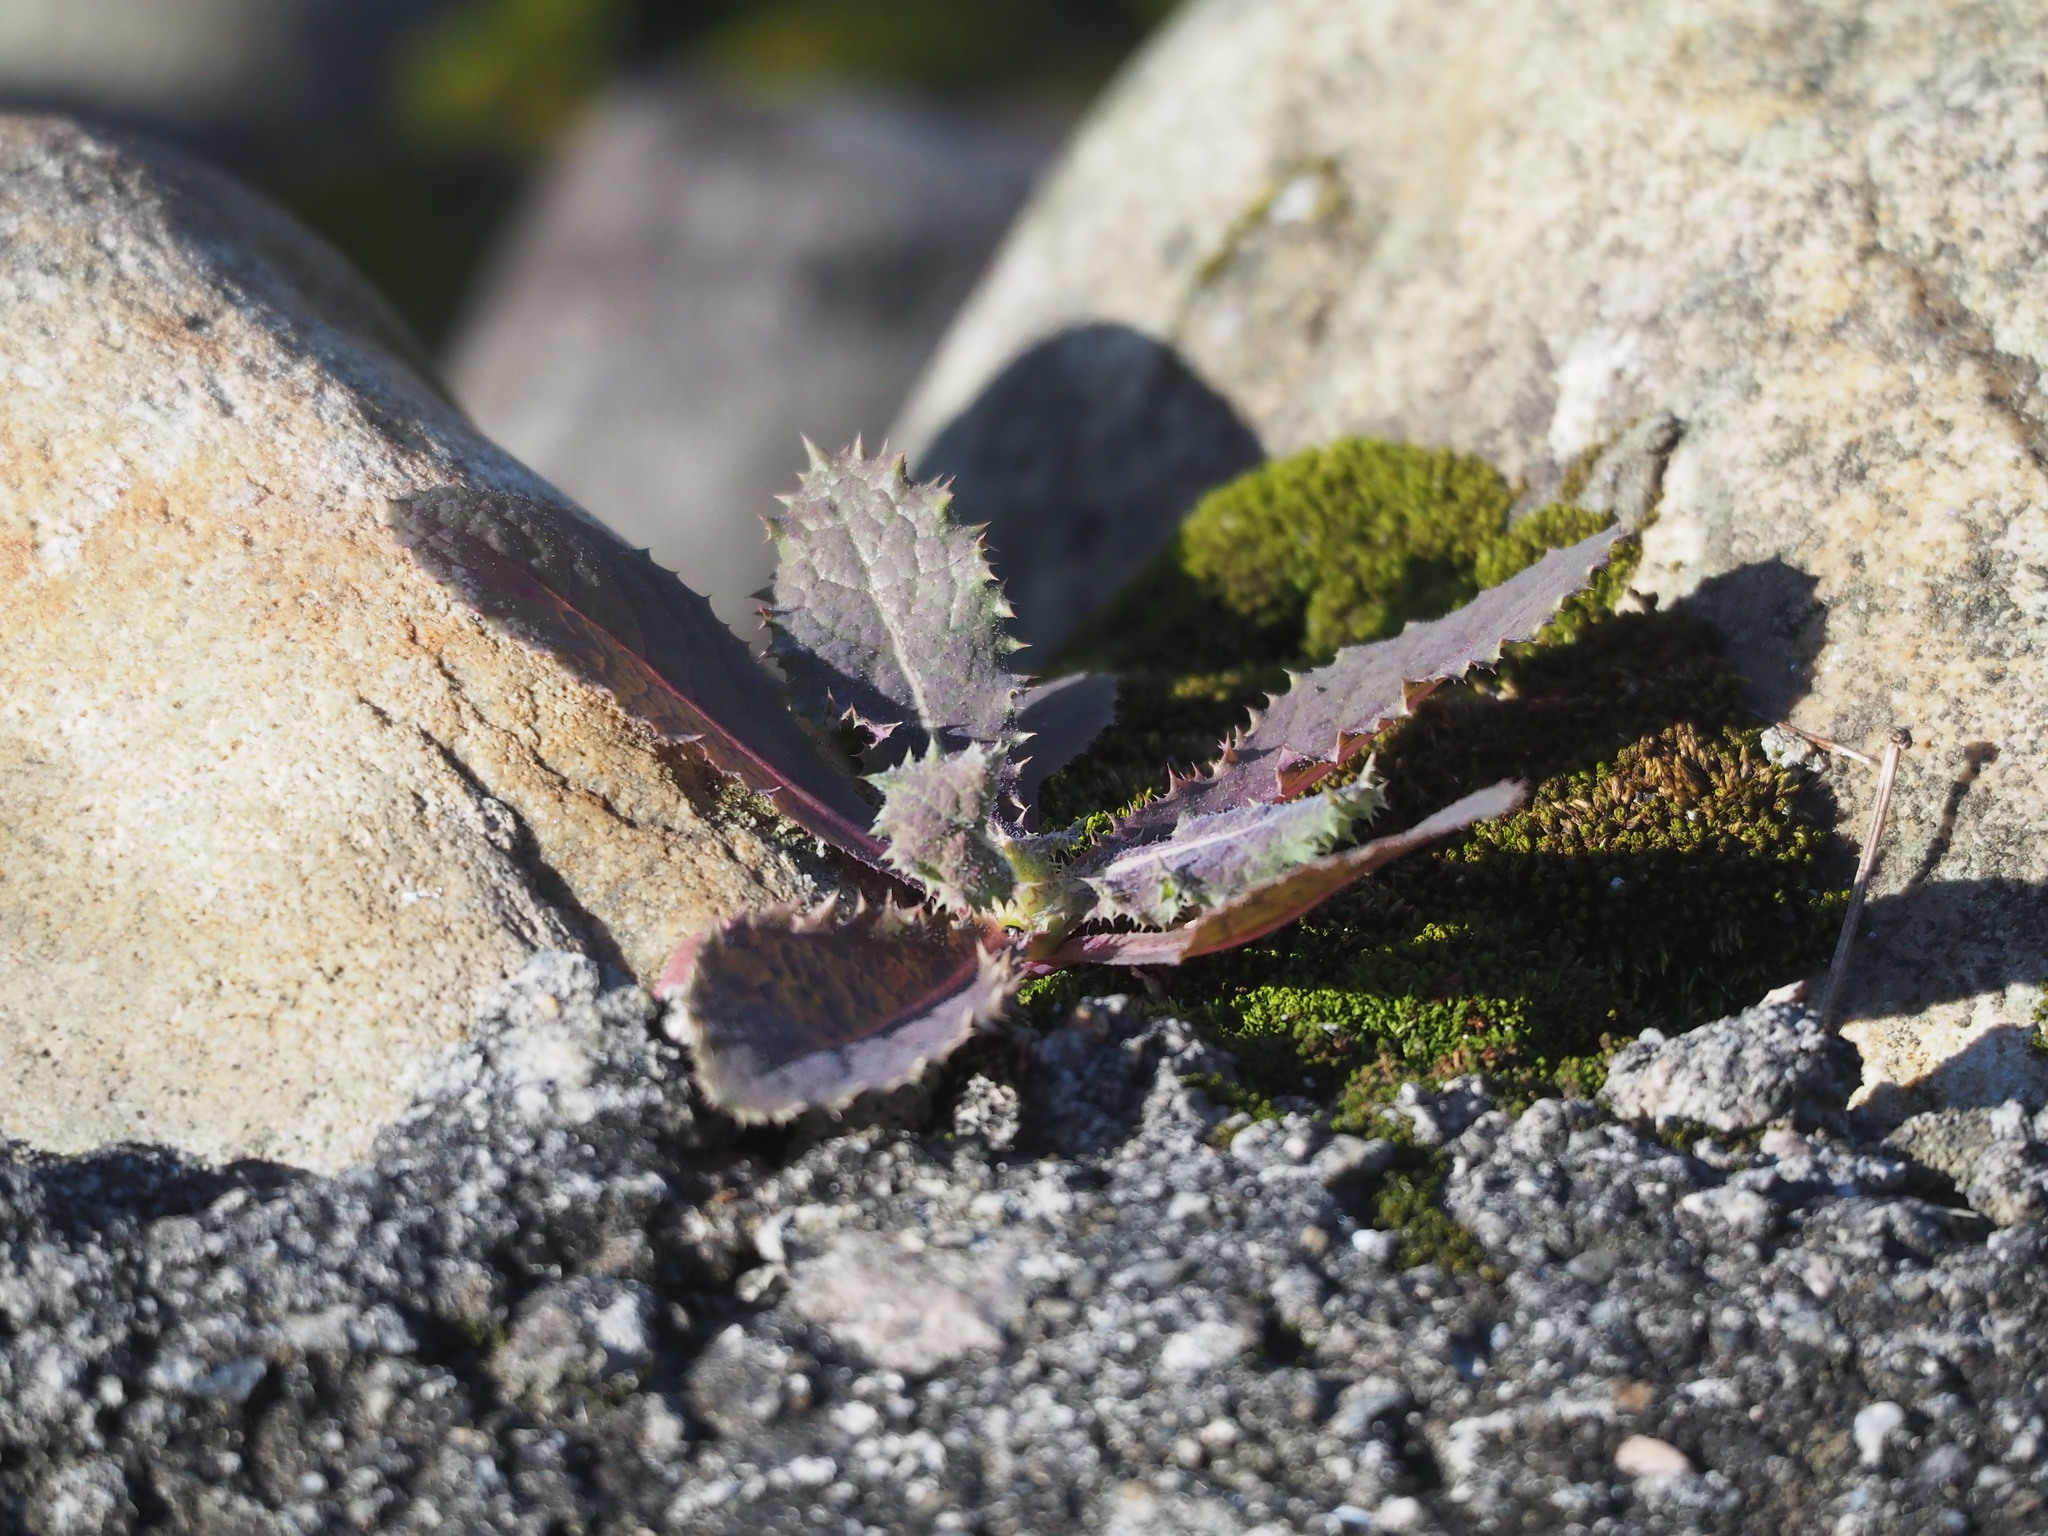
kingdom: Plantae
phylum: Tracheophyta
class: Magnoliopsida
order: Asterales
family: Asteraceae
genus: Sonchus
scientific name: Sonchus asper
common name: Prickly sow-thistle
